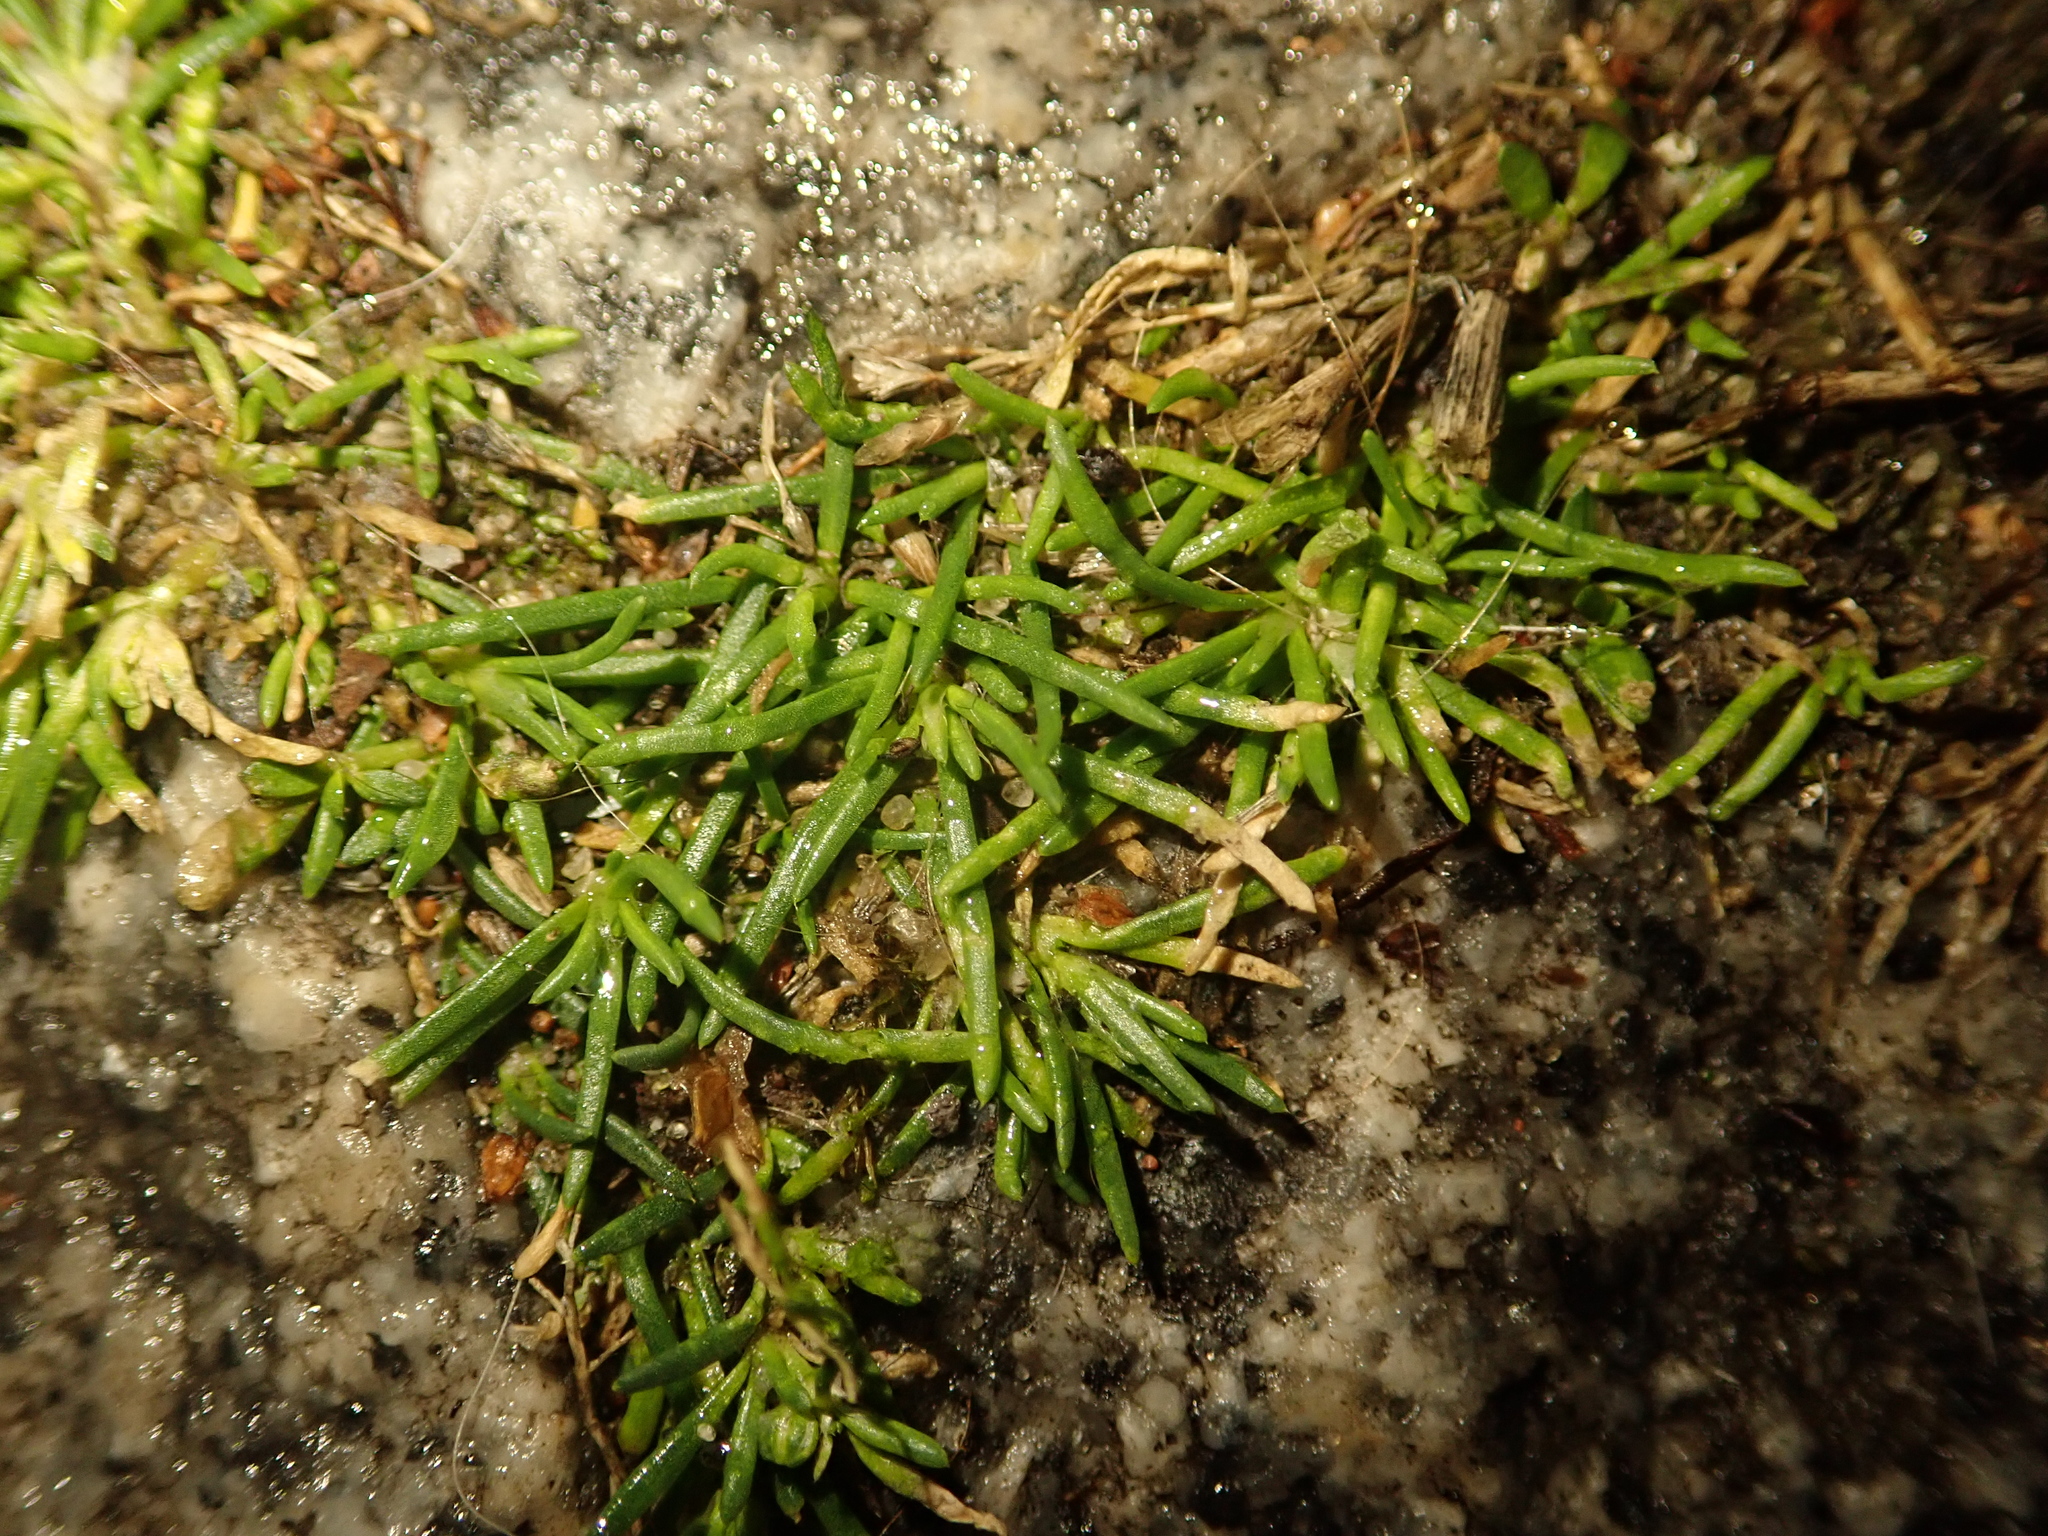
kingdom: Plantae
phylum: Tracheophyta
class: Magnoliopsida
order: Caryophyllales
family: Caryophyllaceae
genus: Sagina
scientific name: Sagina procumbens
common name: Procumbent pearlwort
